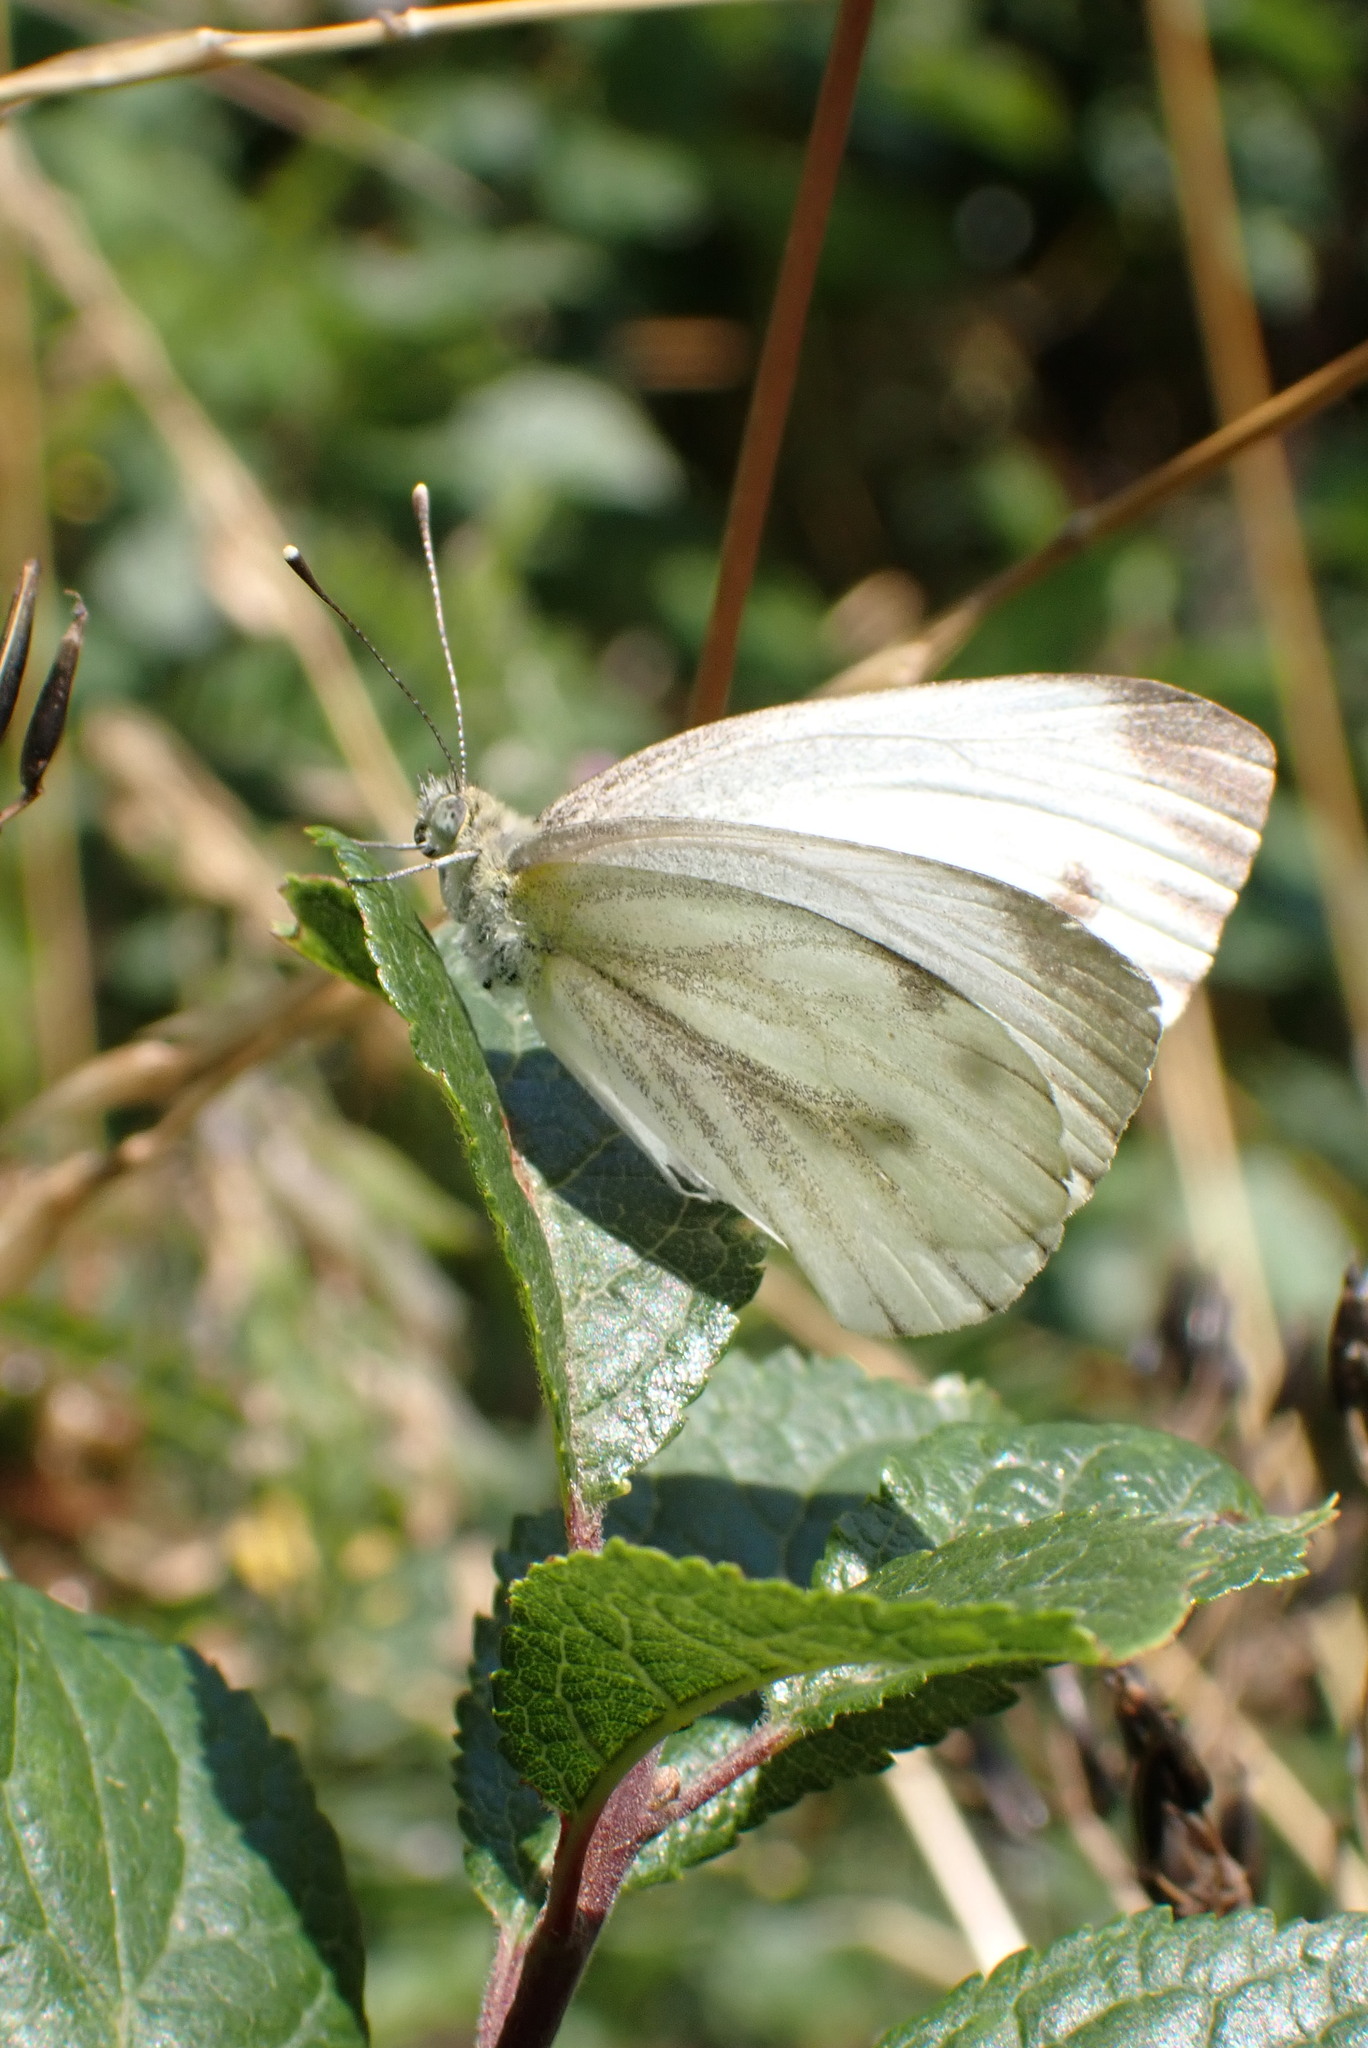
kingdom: Animalia
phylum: Arthropoda
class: Insecta
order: Lepidoptera
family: Pieridae
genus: Pieris
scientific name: Pieris napi
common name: Green-veined white
